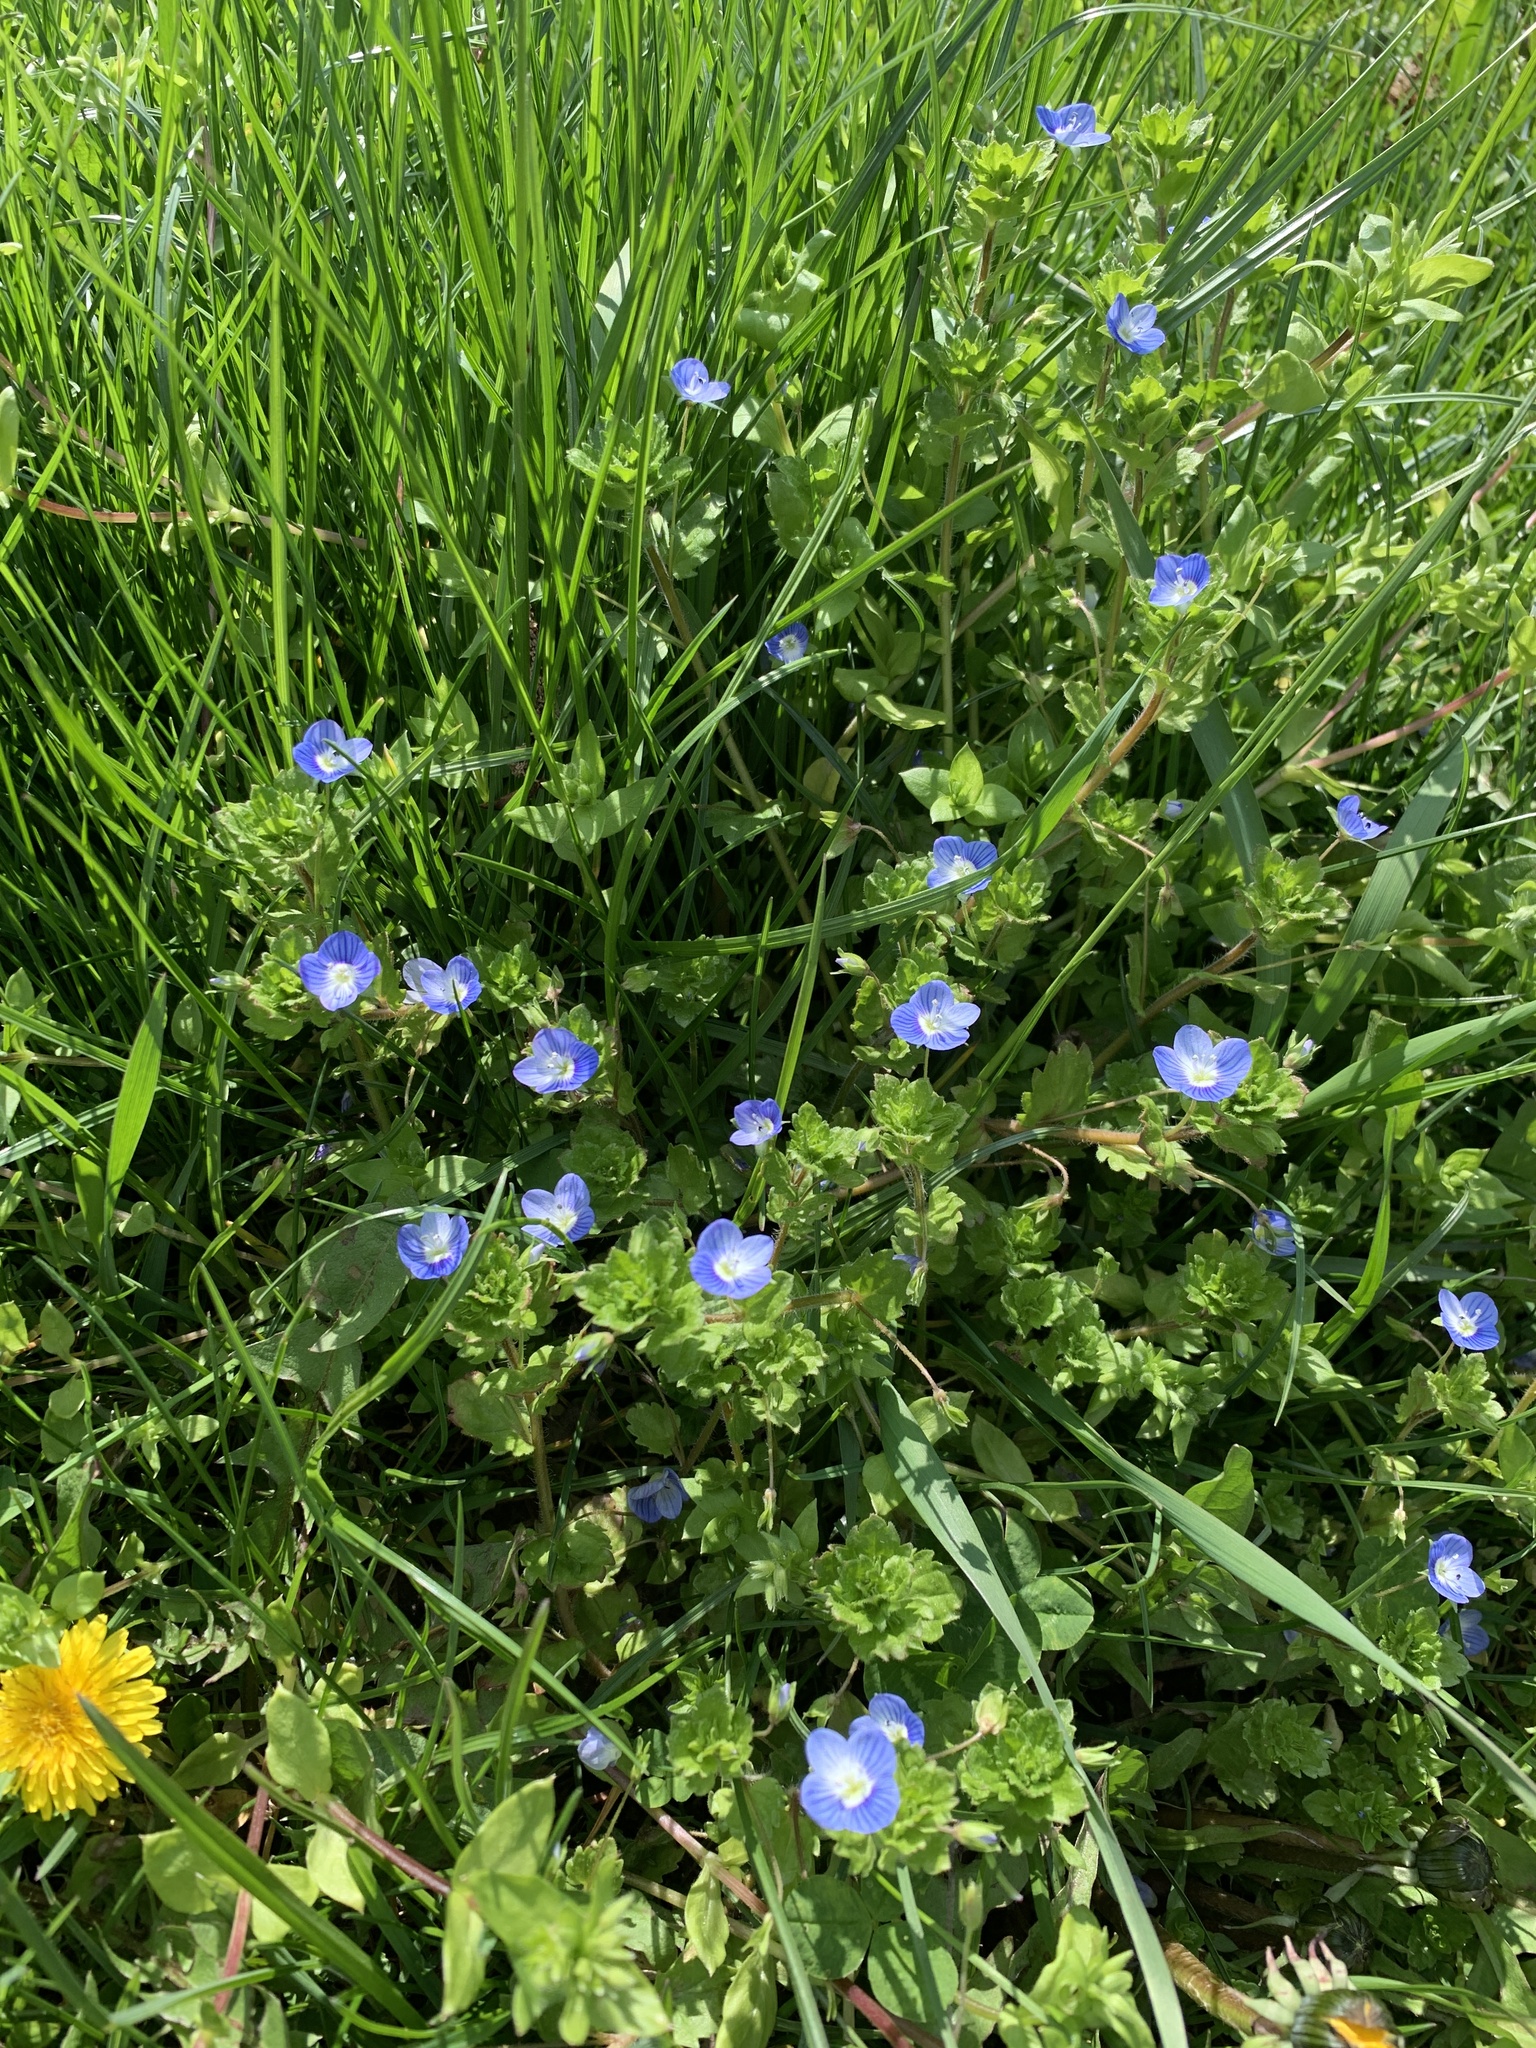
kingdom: Plantae
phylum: Tracheophyta
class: Magnoliopsida
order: Lamiales
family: Plantaginaceae
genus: Veronica
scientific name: Veronica persica
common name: Common field-speedwell
